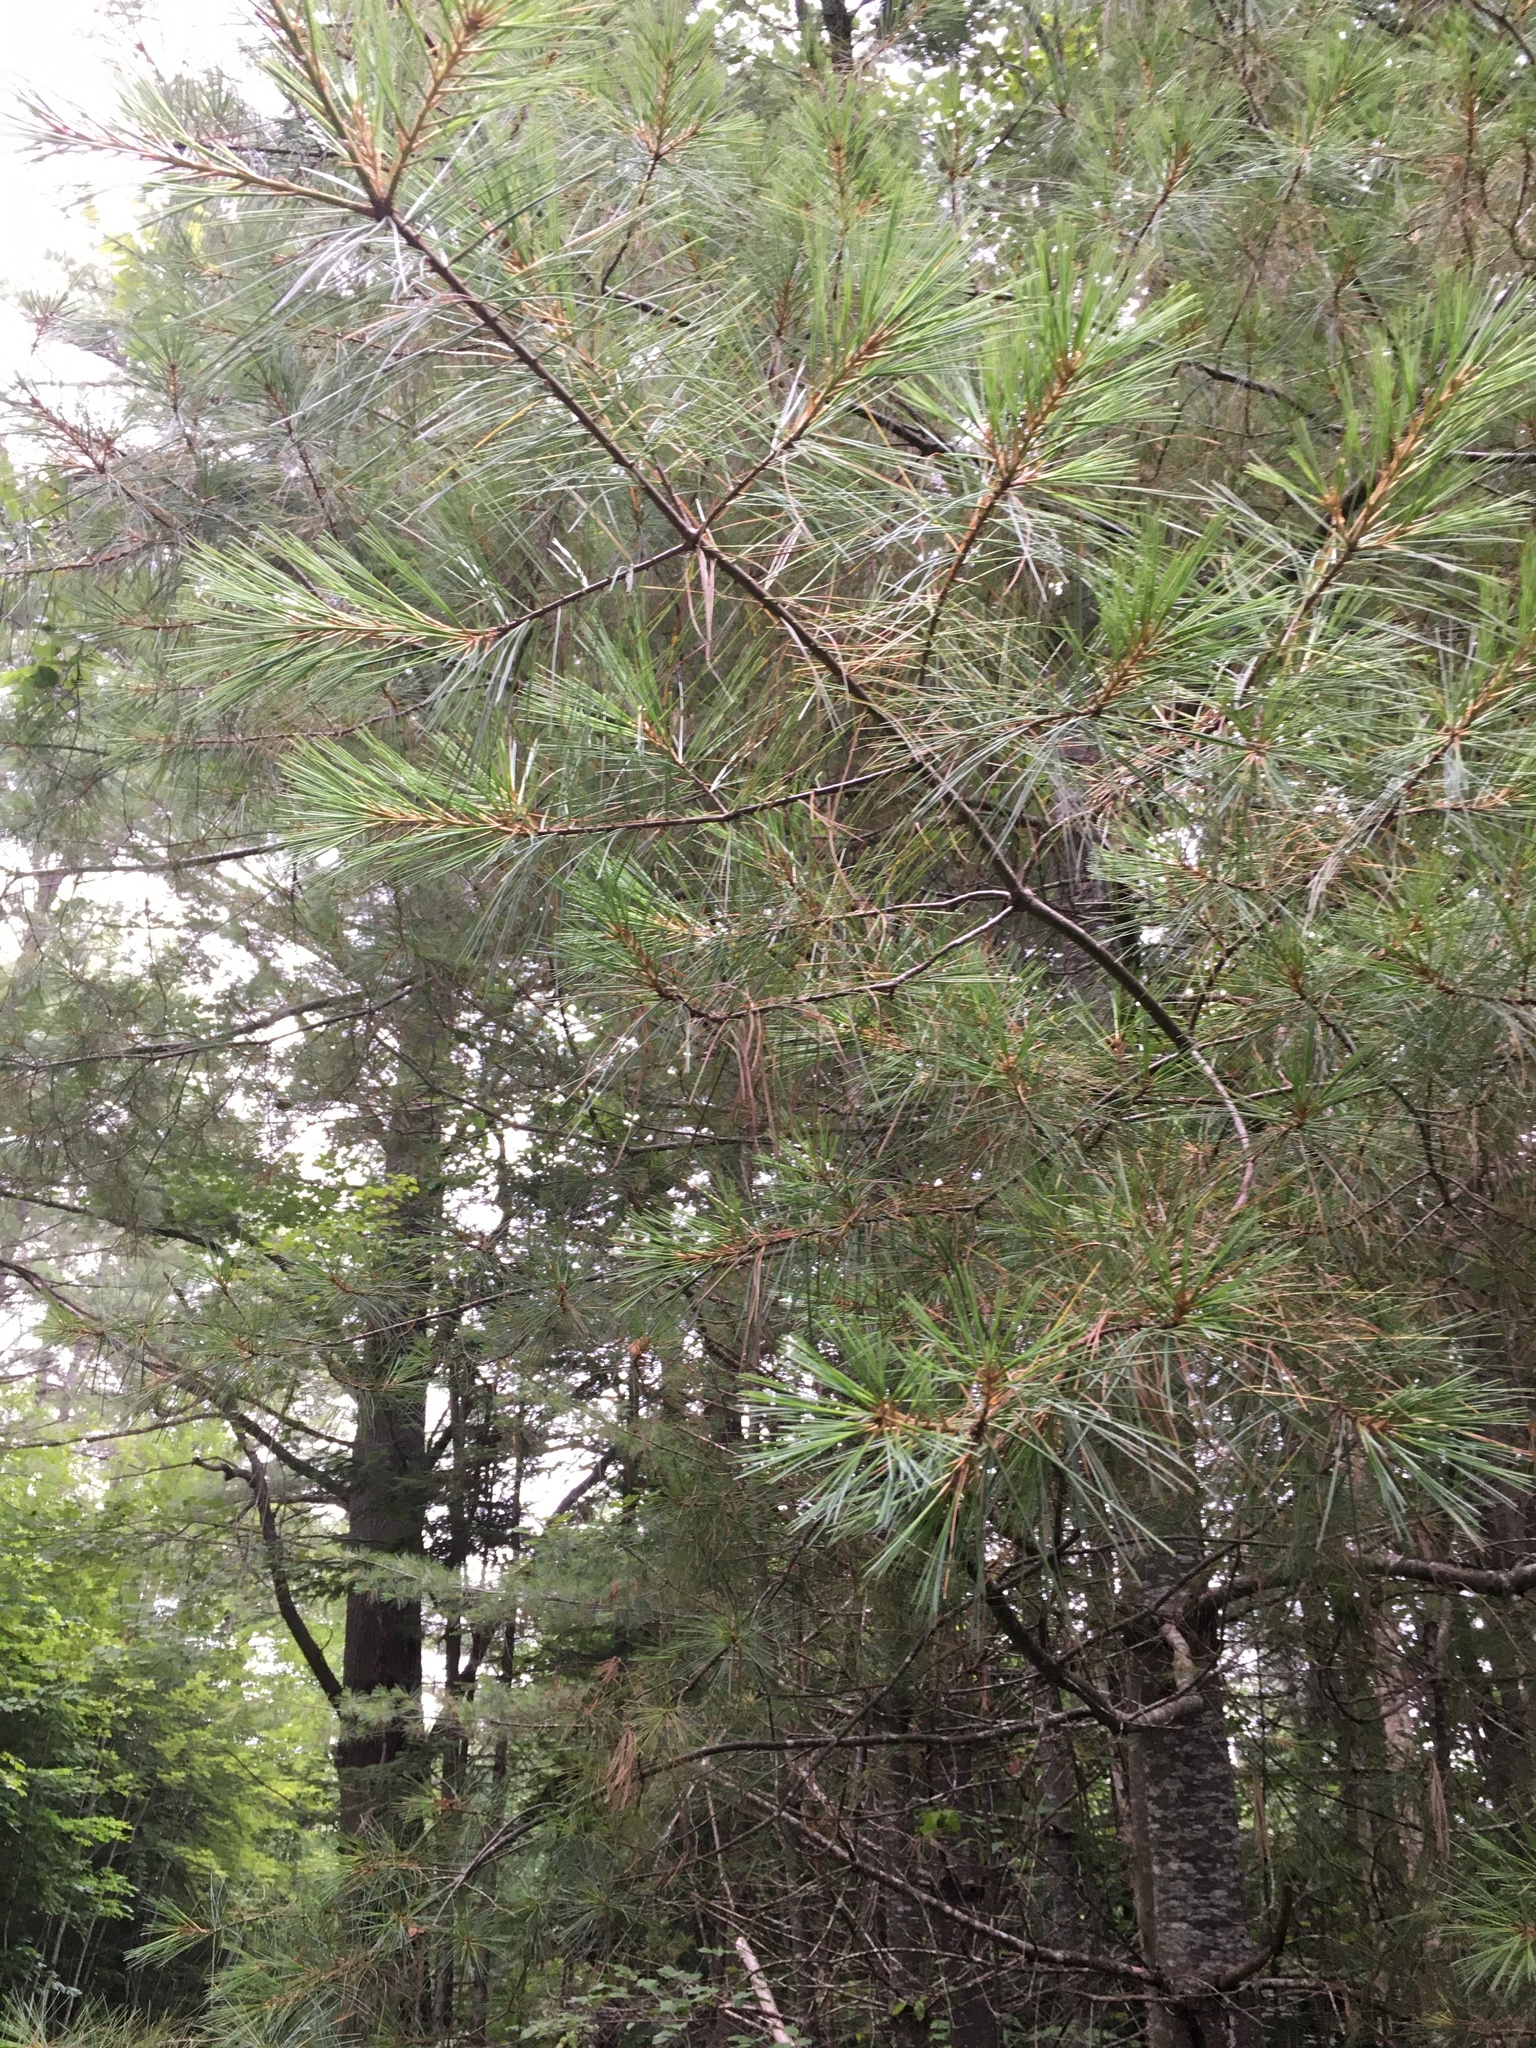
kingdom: Plantae
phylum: Tracheophyta
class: Pinopsida
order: Pinales
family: Pinaceae
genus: Pinus
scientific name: Pinus strobus
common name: Weymouth pine
